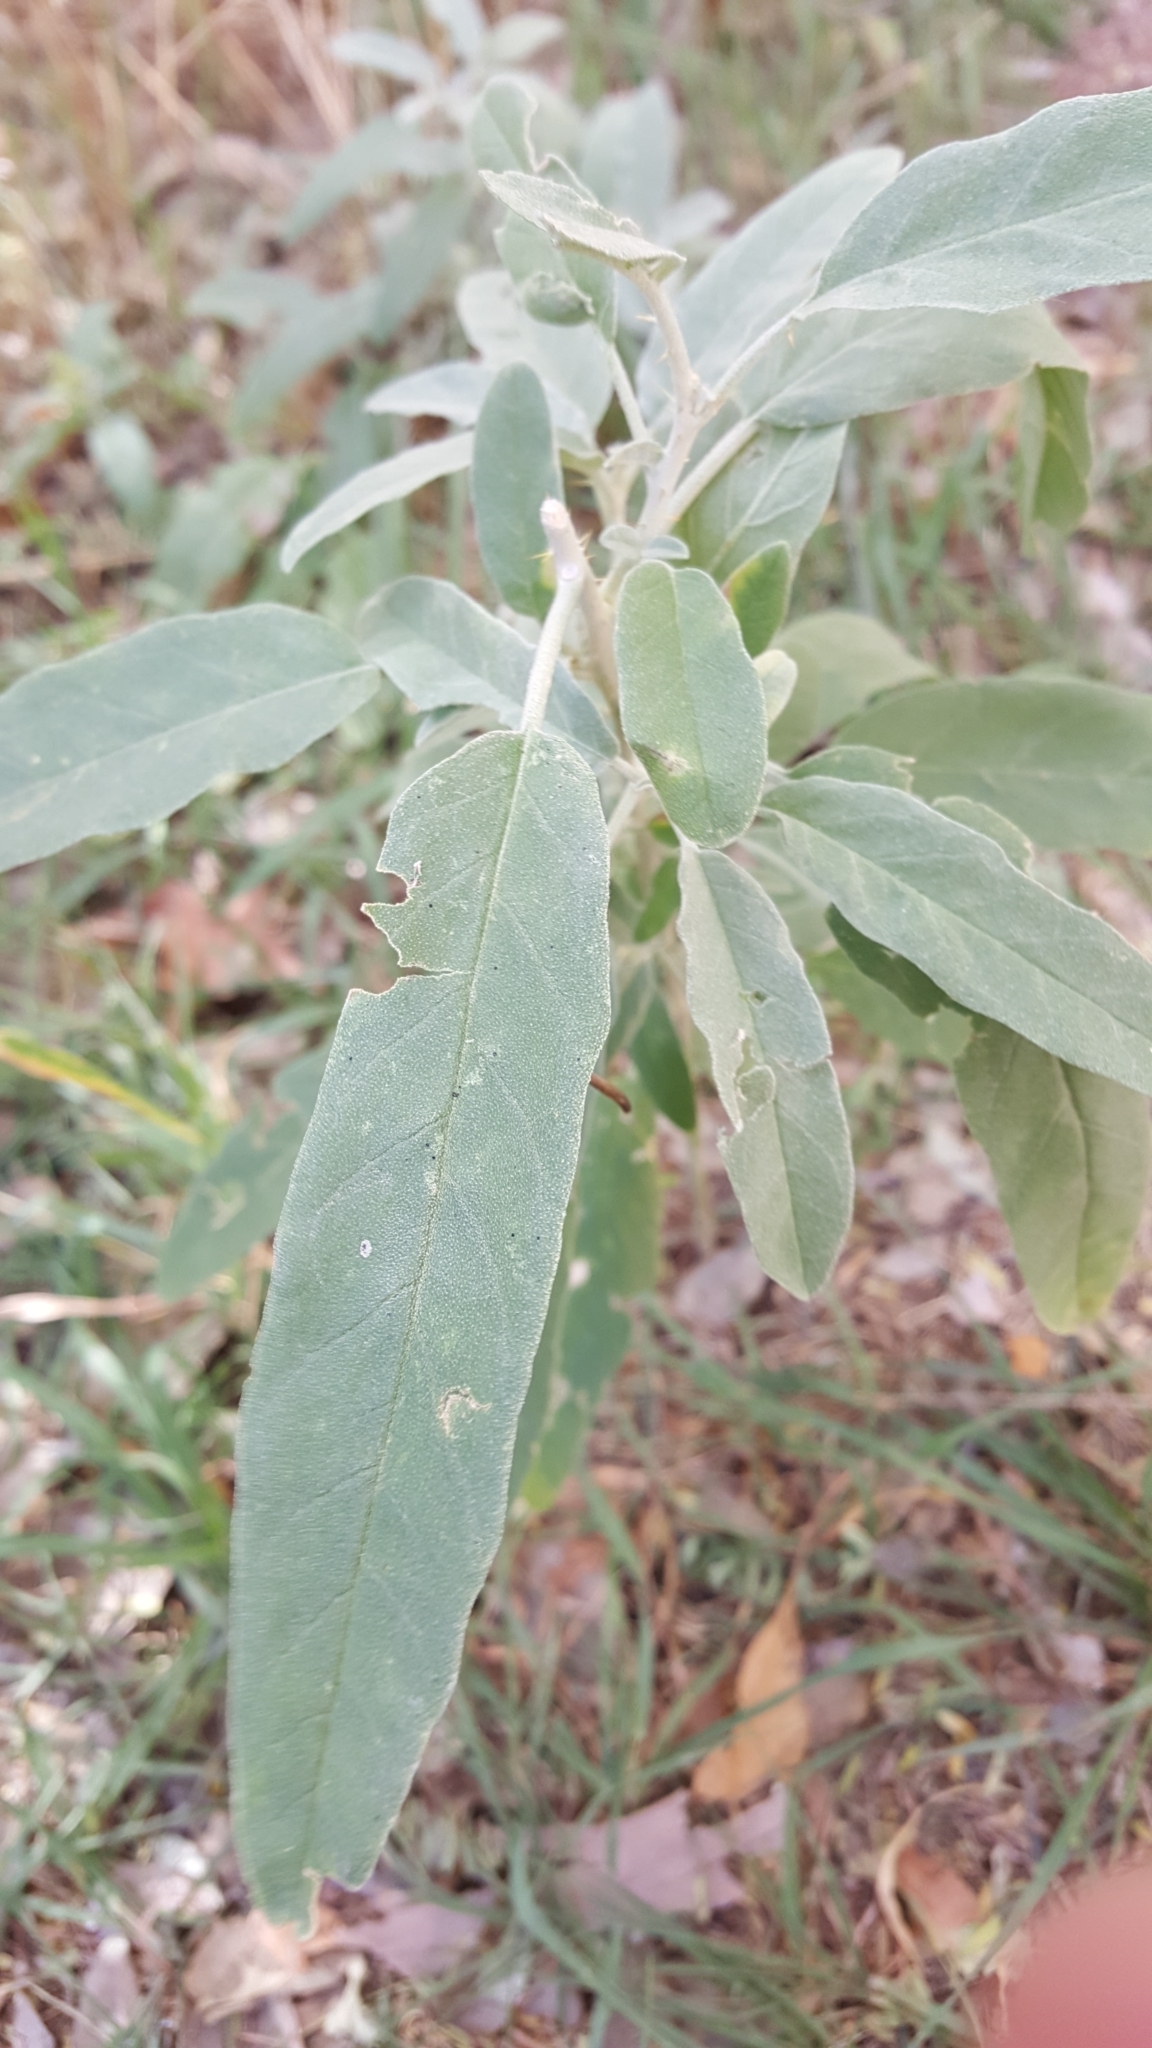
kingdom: Plantae
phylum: Tracheophyta
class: Magnoliopsida
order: Solanales
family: Solanaceae
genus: Solanum
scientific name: Solanum elaeagnifolium
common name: Silverleaf nightshade
